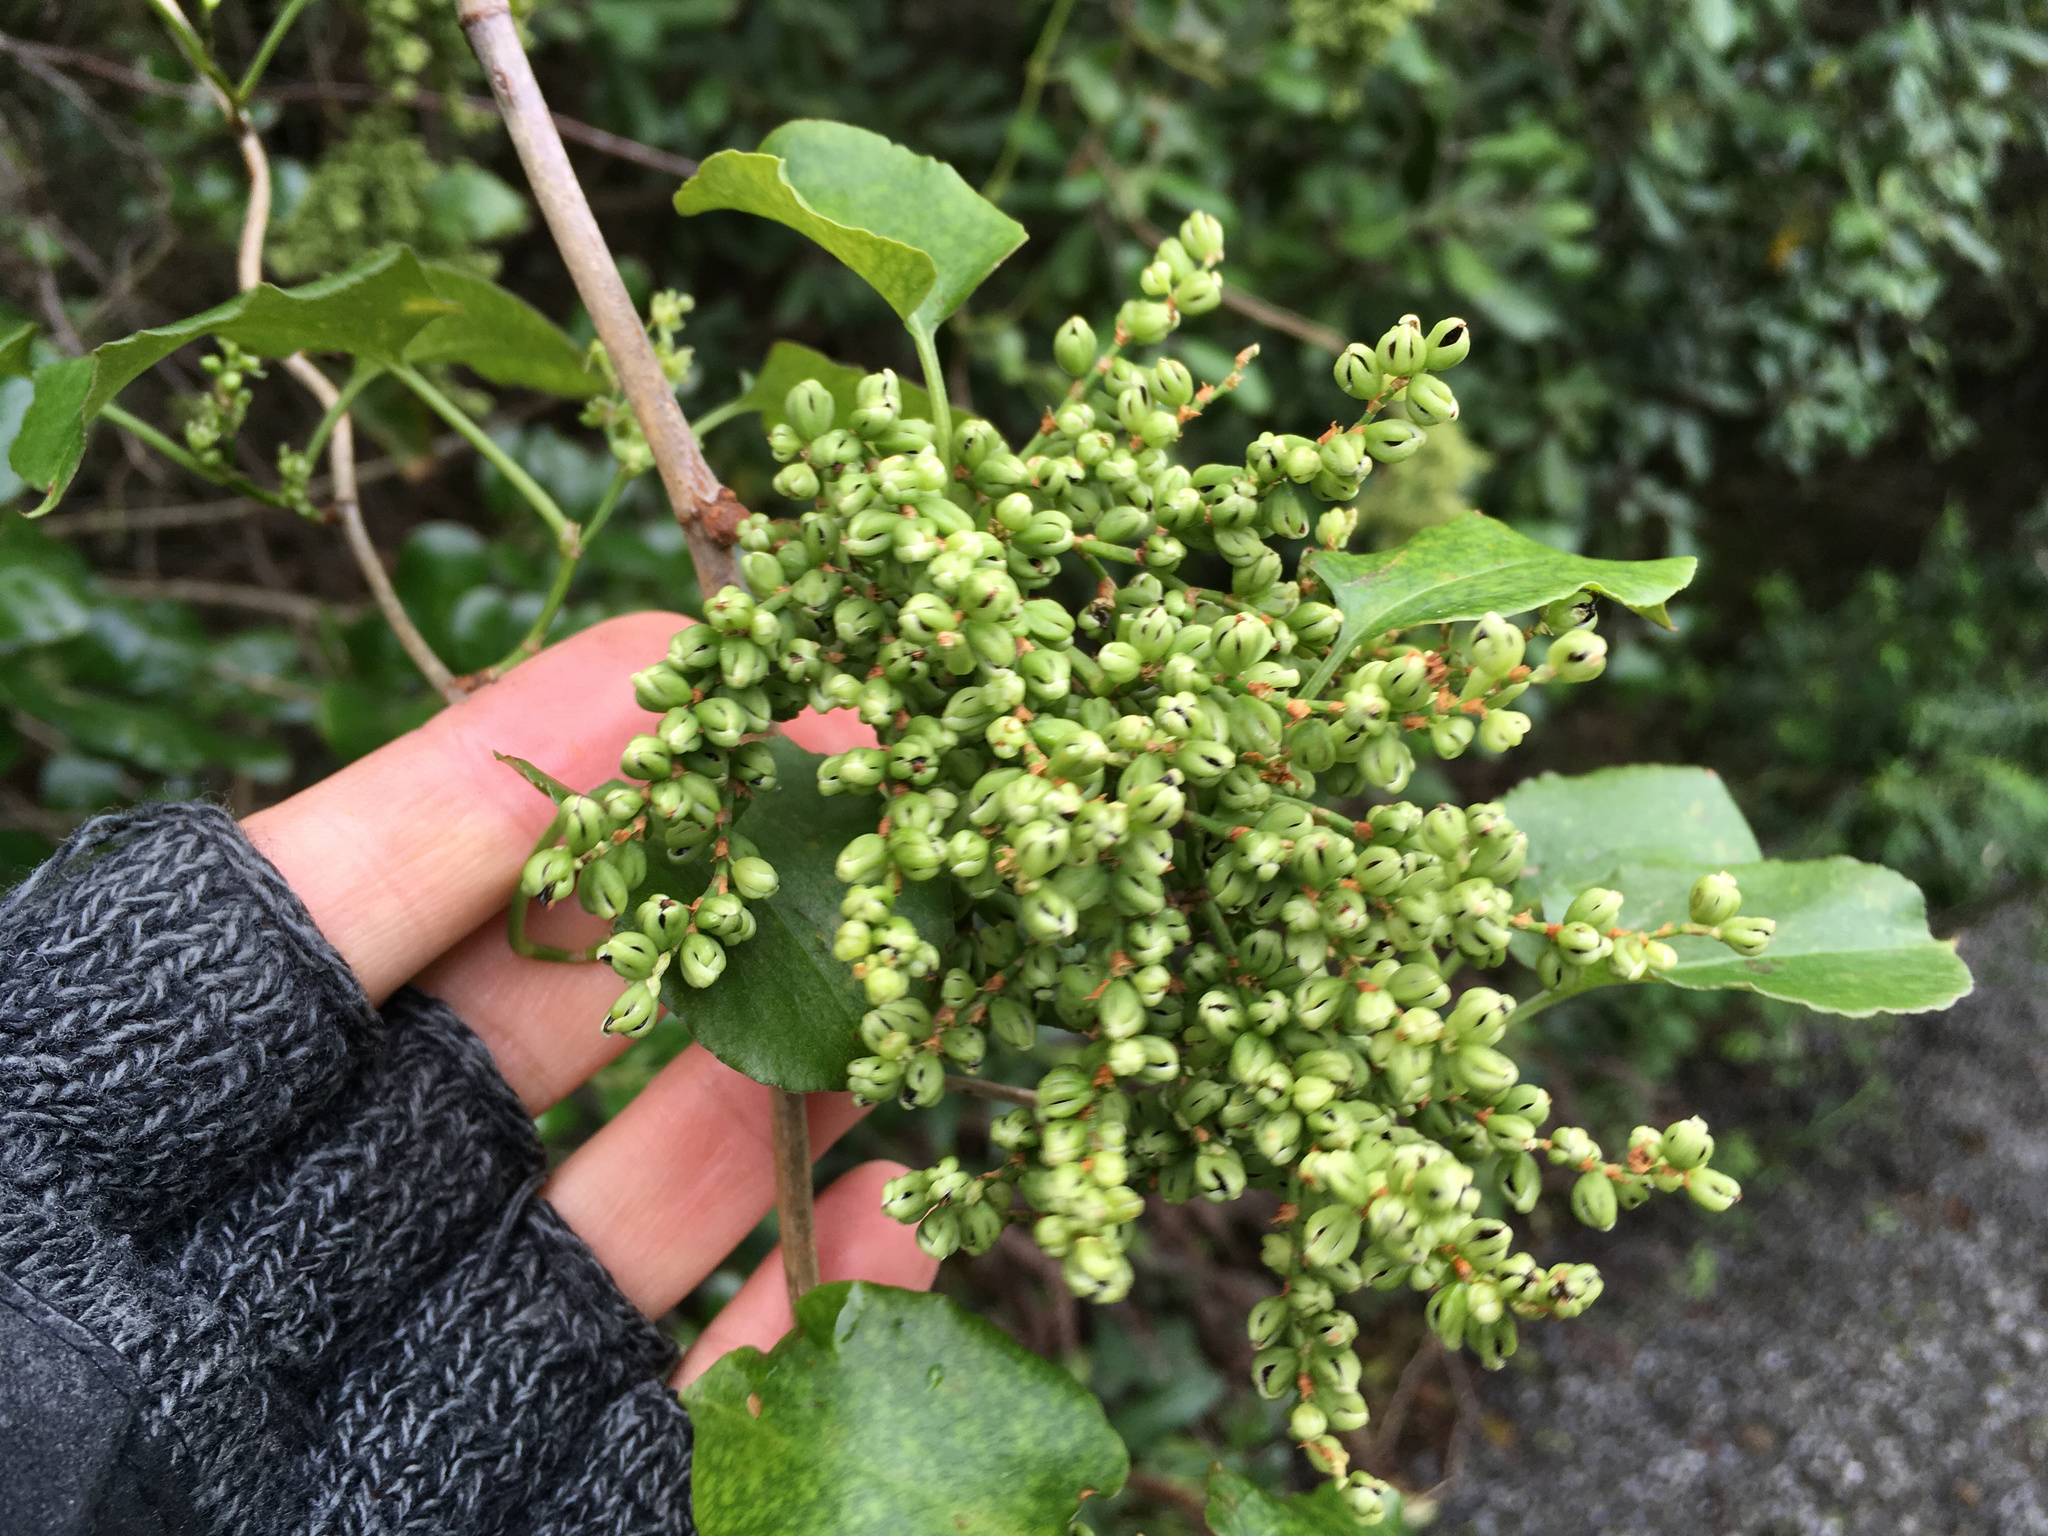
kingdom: Plantae
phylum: Tracheophyta
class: Magnoliopsida
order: Caryophyllales
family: Polygonaceae
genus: Muehlenbeckia
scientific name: Muehlenbeckia australis
